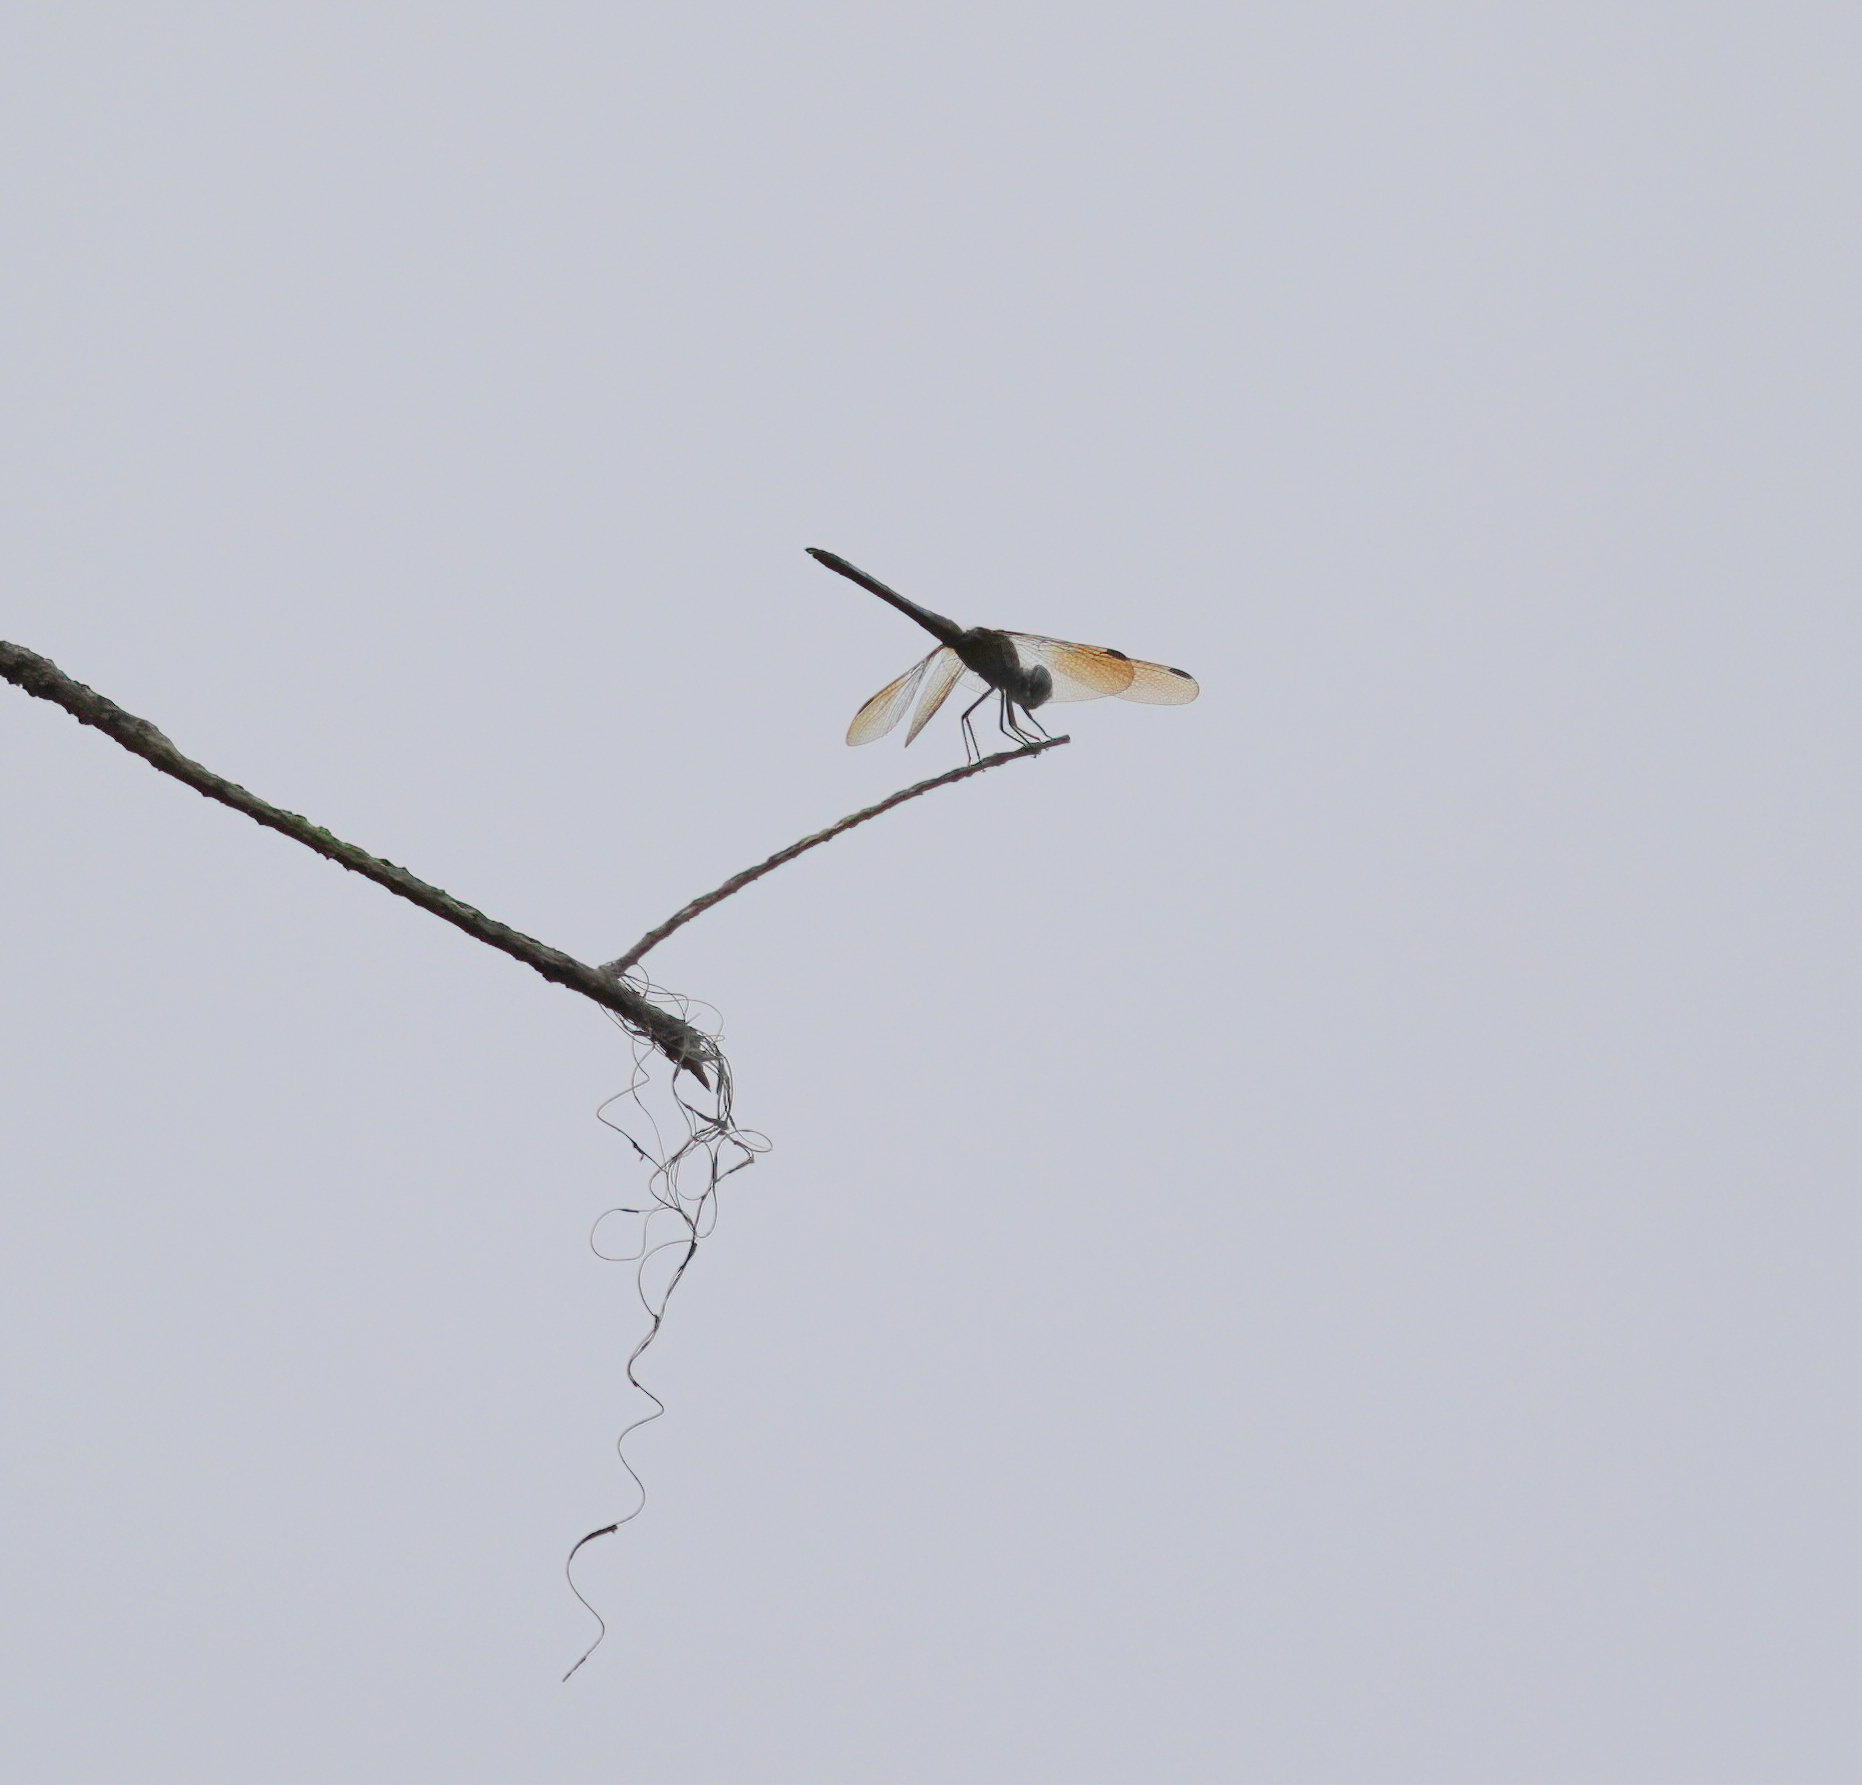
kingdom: Animalia
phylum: Arthropoda
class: Insecta
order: Odonata
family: Libellulidae
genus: Brachymesia
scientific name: Brachymesia gravida
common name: Four-spotted pennant
